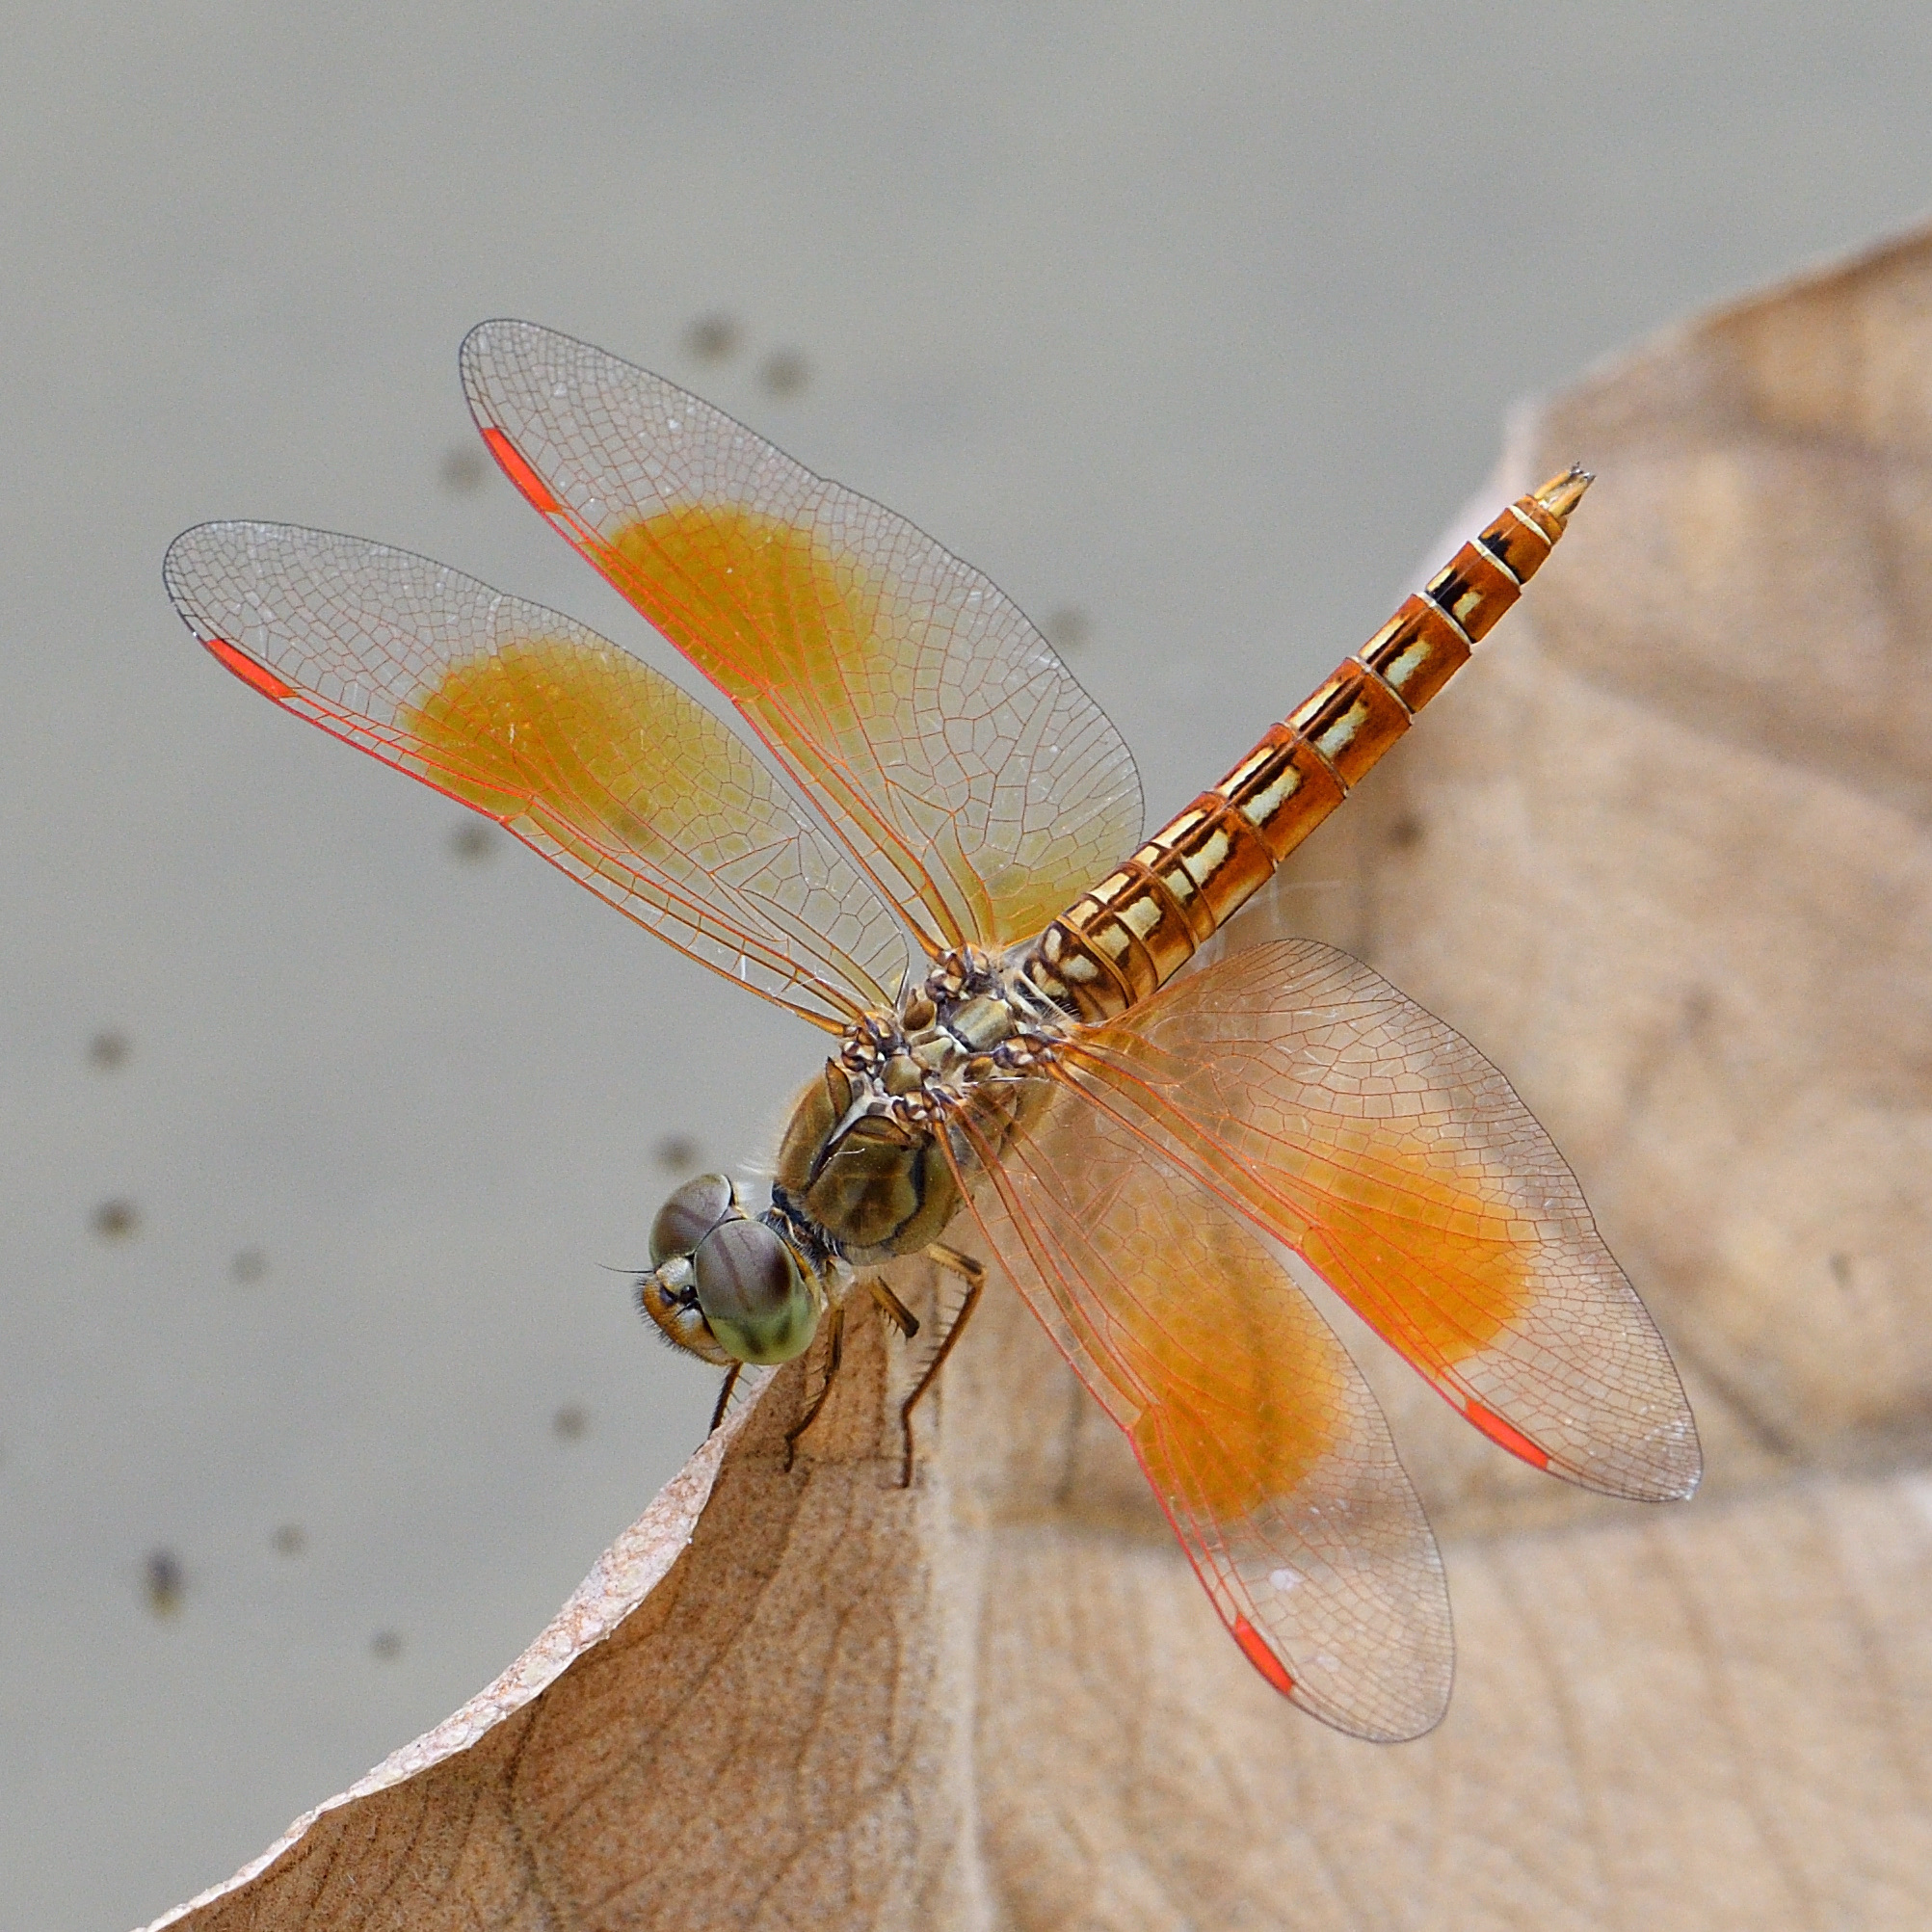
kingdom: Animalia
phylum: Arthropoda
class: Insecta
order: Odonata
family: Libellulidae
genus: Brachythemis
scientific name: Brachythemis contaminata
